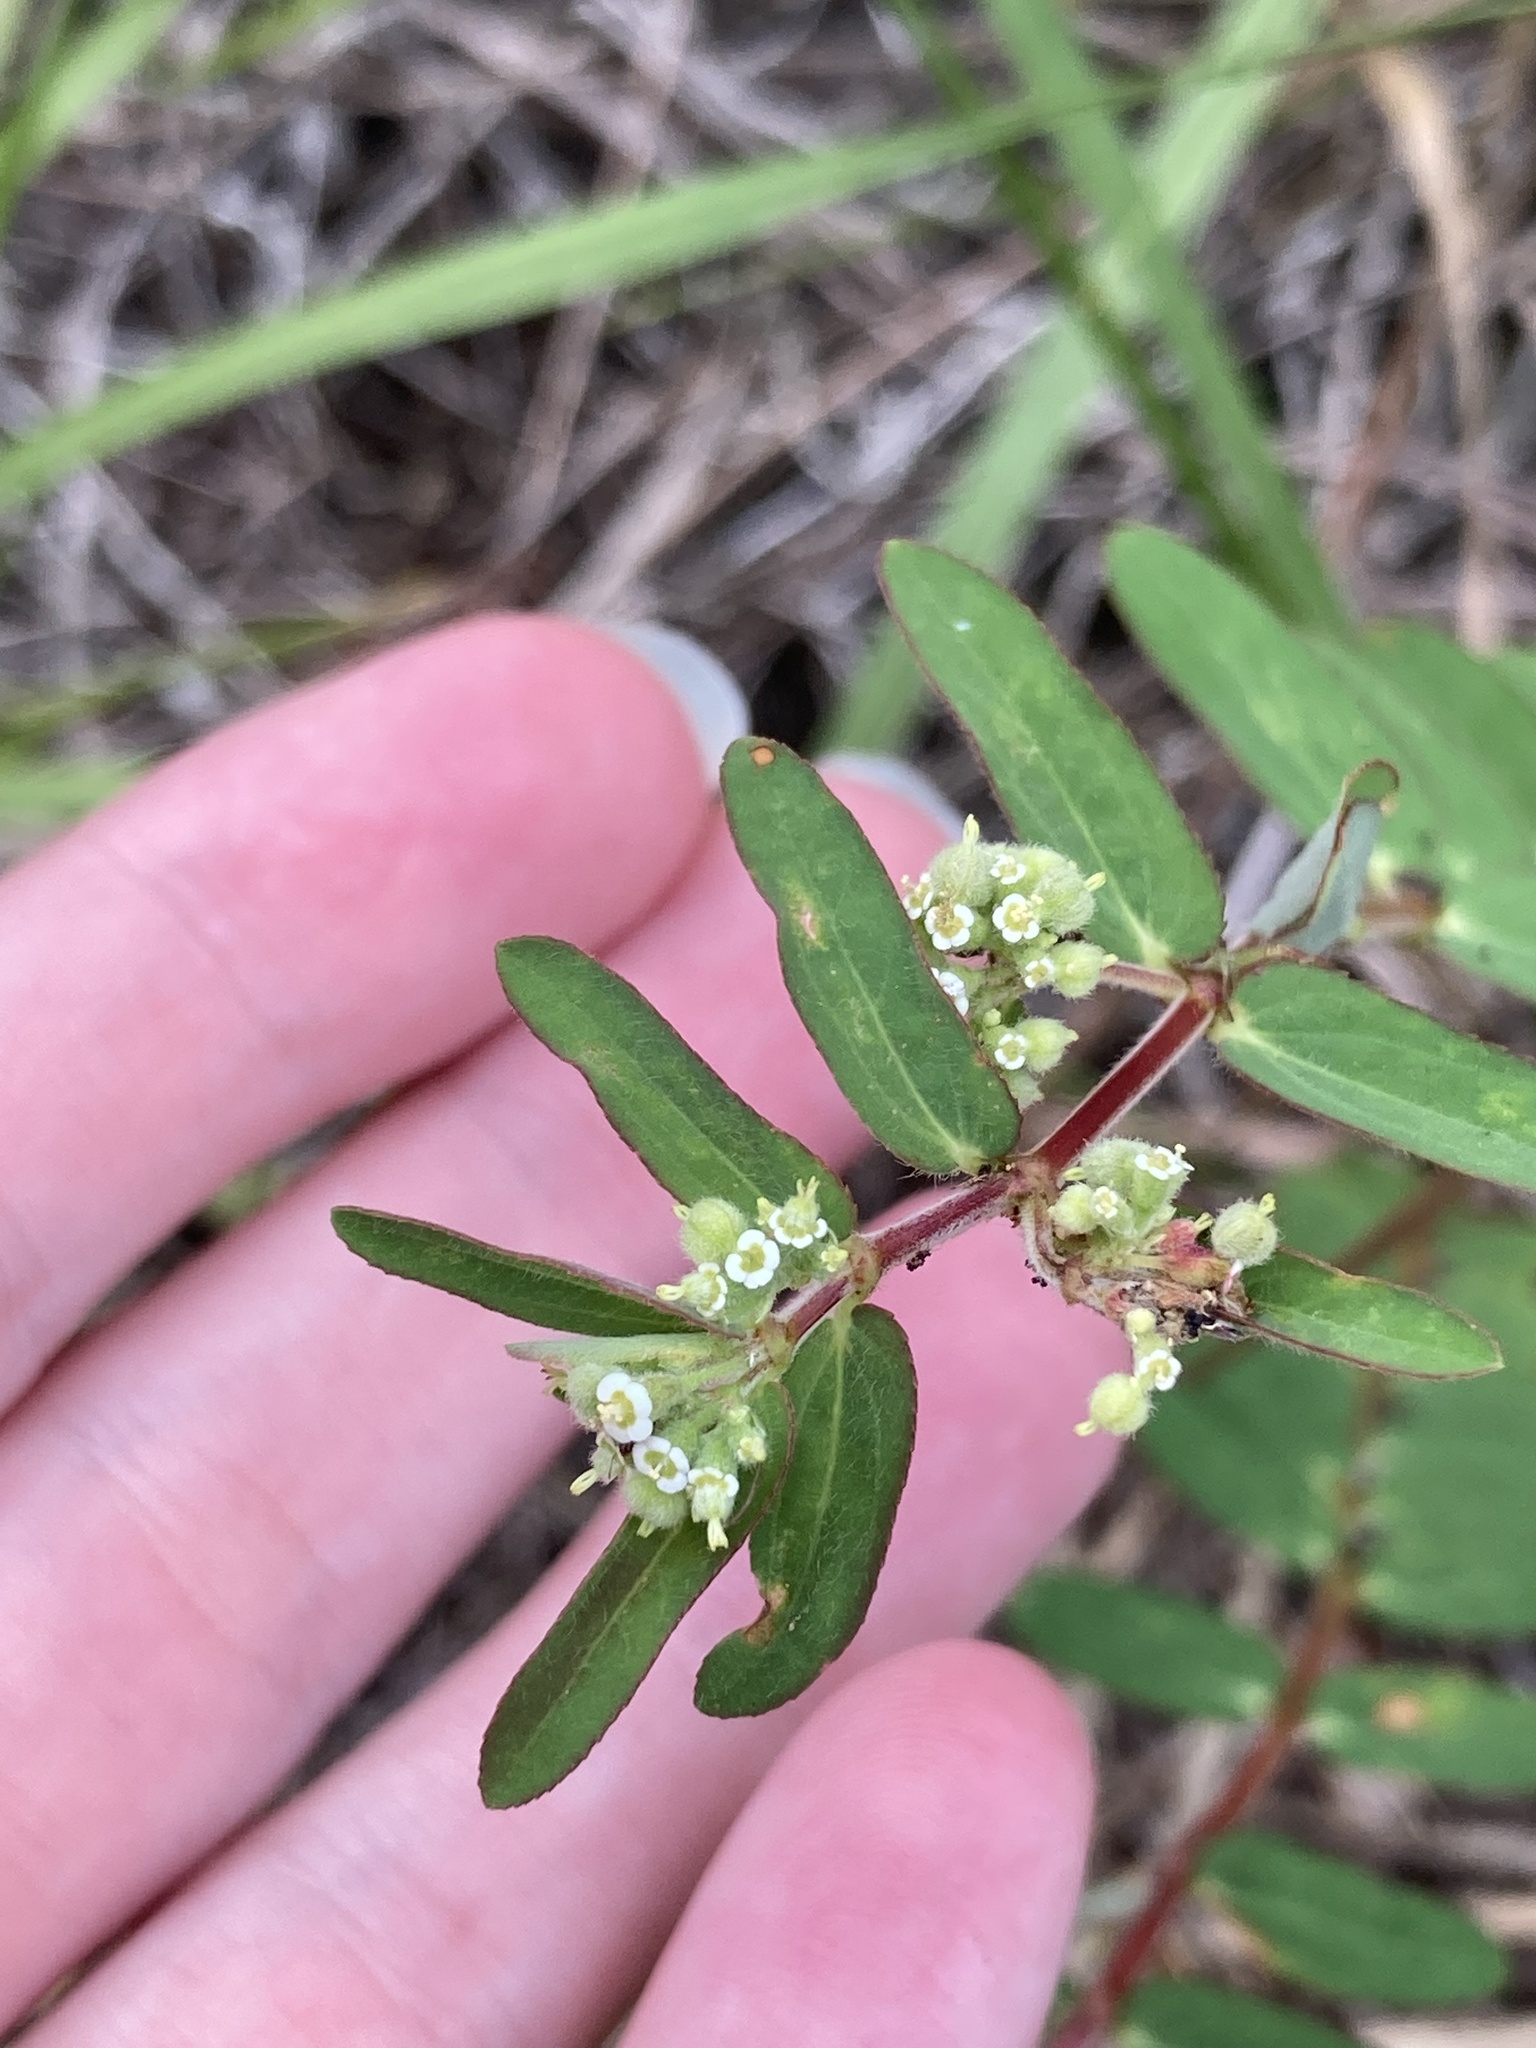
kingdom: Plantae
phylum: Tracheophyta
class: Magnoliopsida
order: Malpighiales
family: Euphorbiaceae
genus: Euphorbia
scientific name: Euphorbia lasiocarpa
